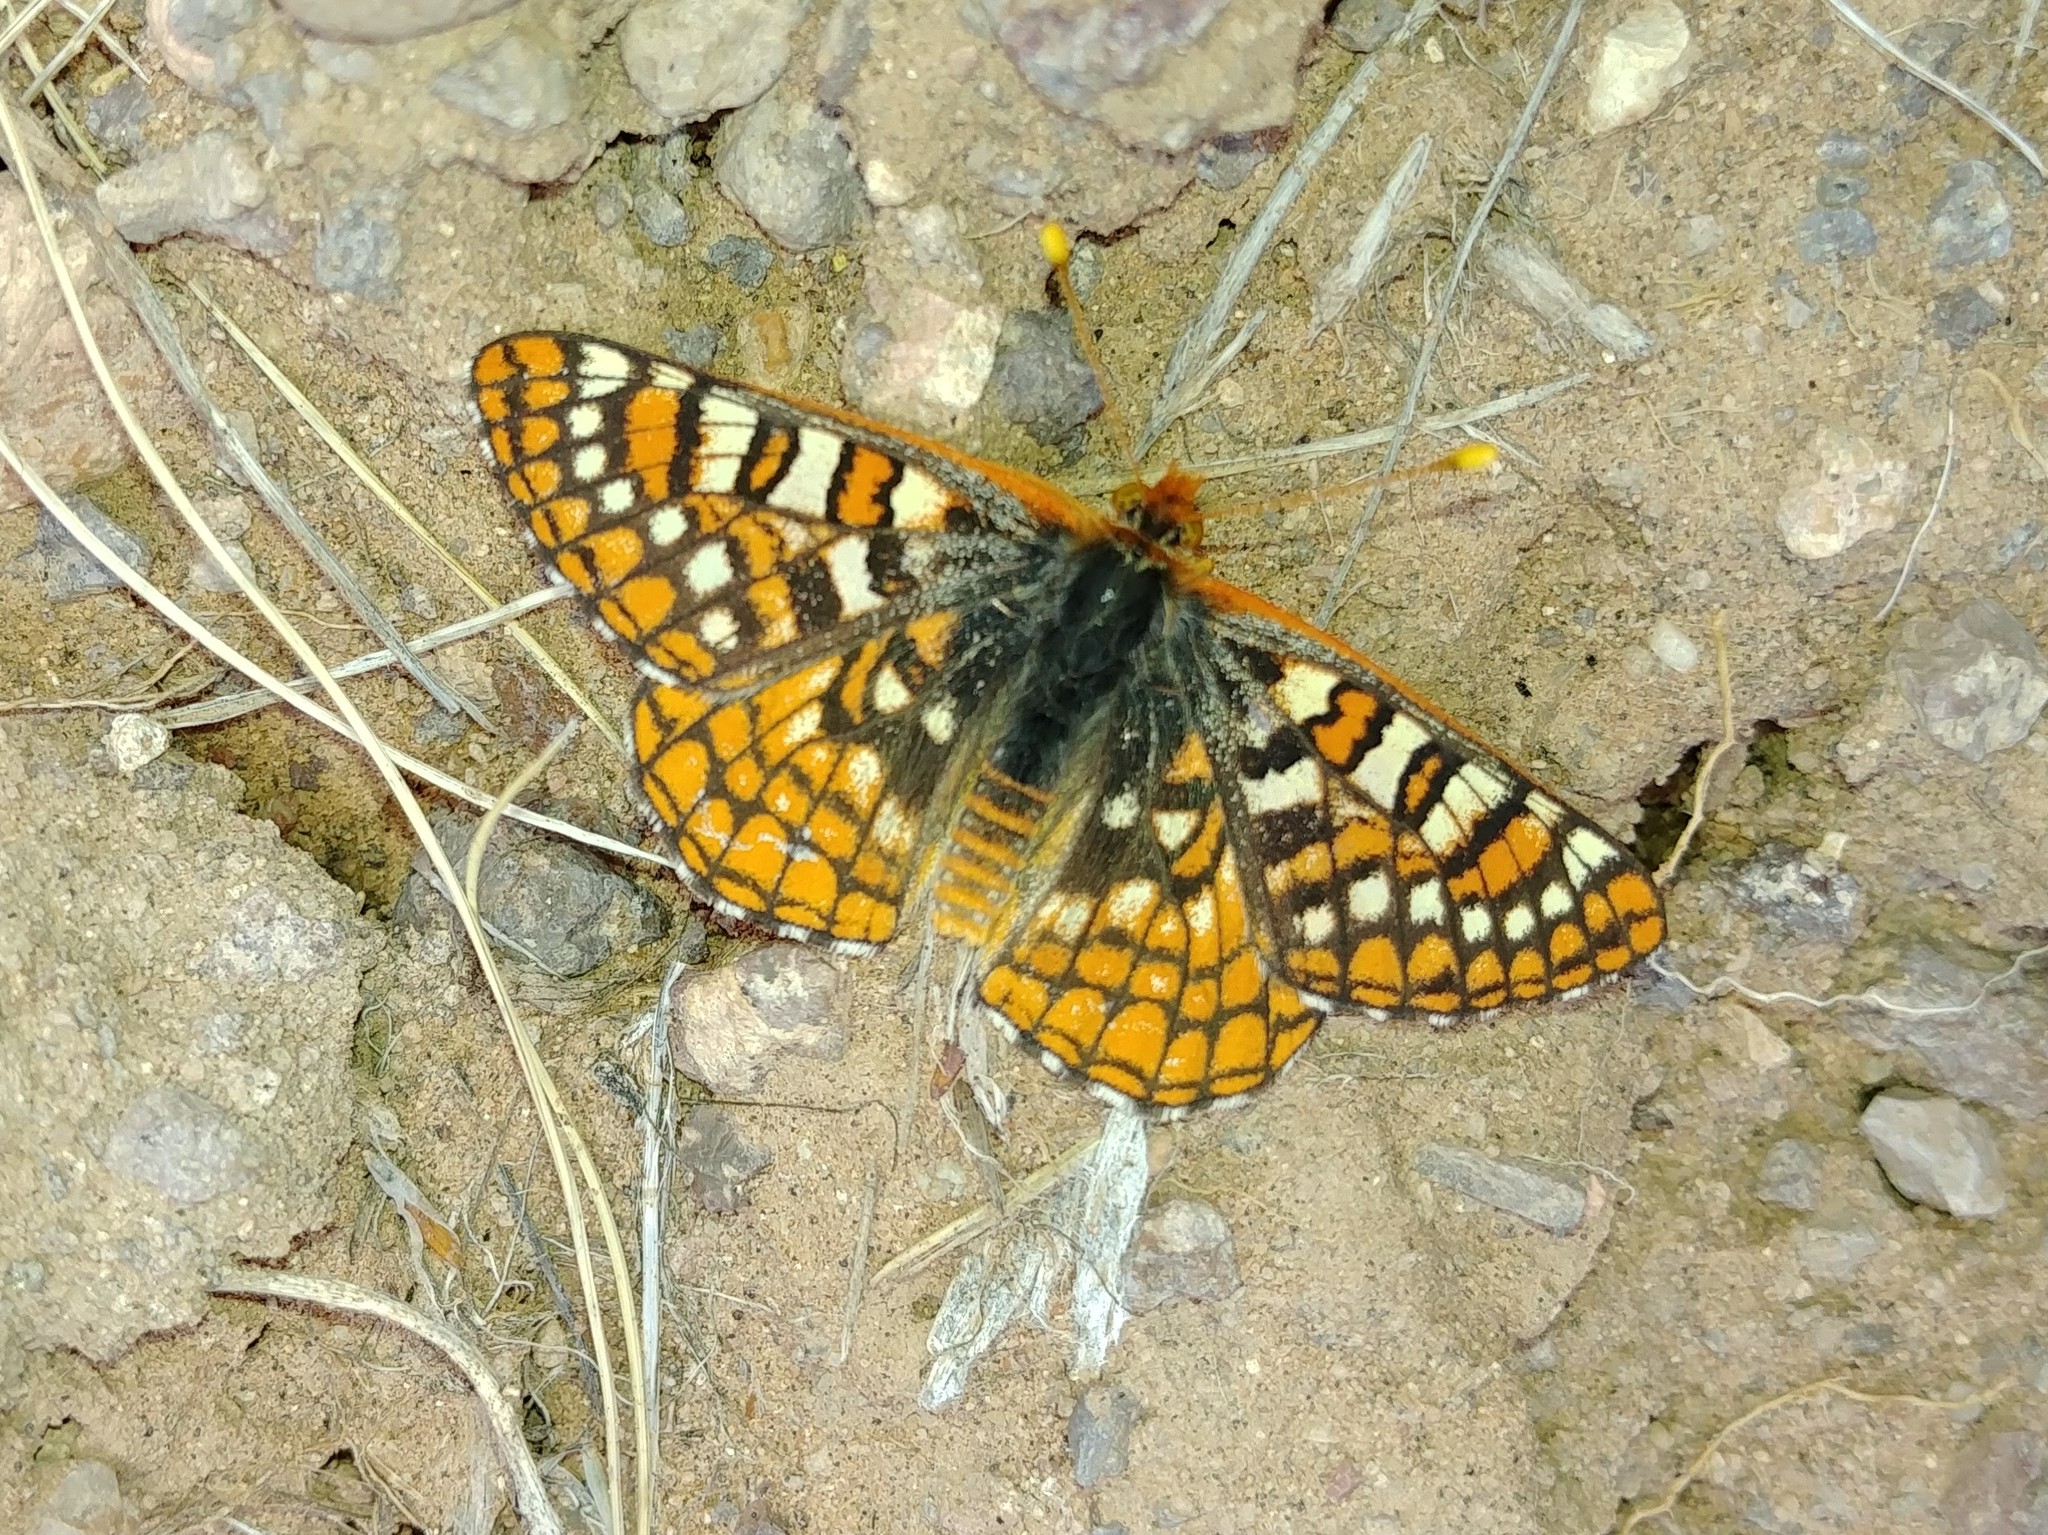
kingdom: Animalia
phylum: Arthropoda
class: Insecta
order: Lepidoptera
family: Nymphalidae
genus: Occidryas
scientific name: Occidryas anicia
